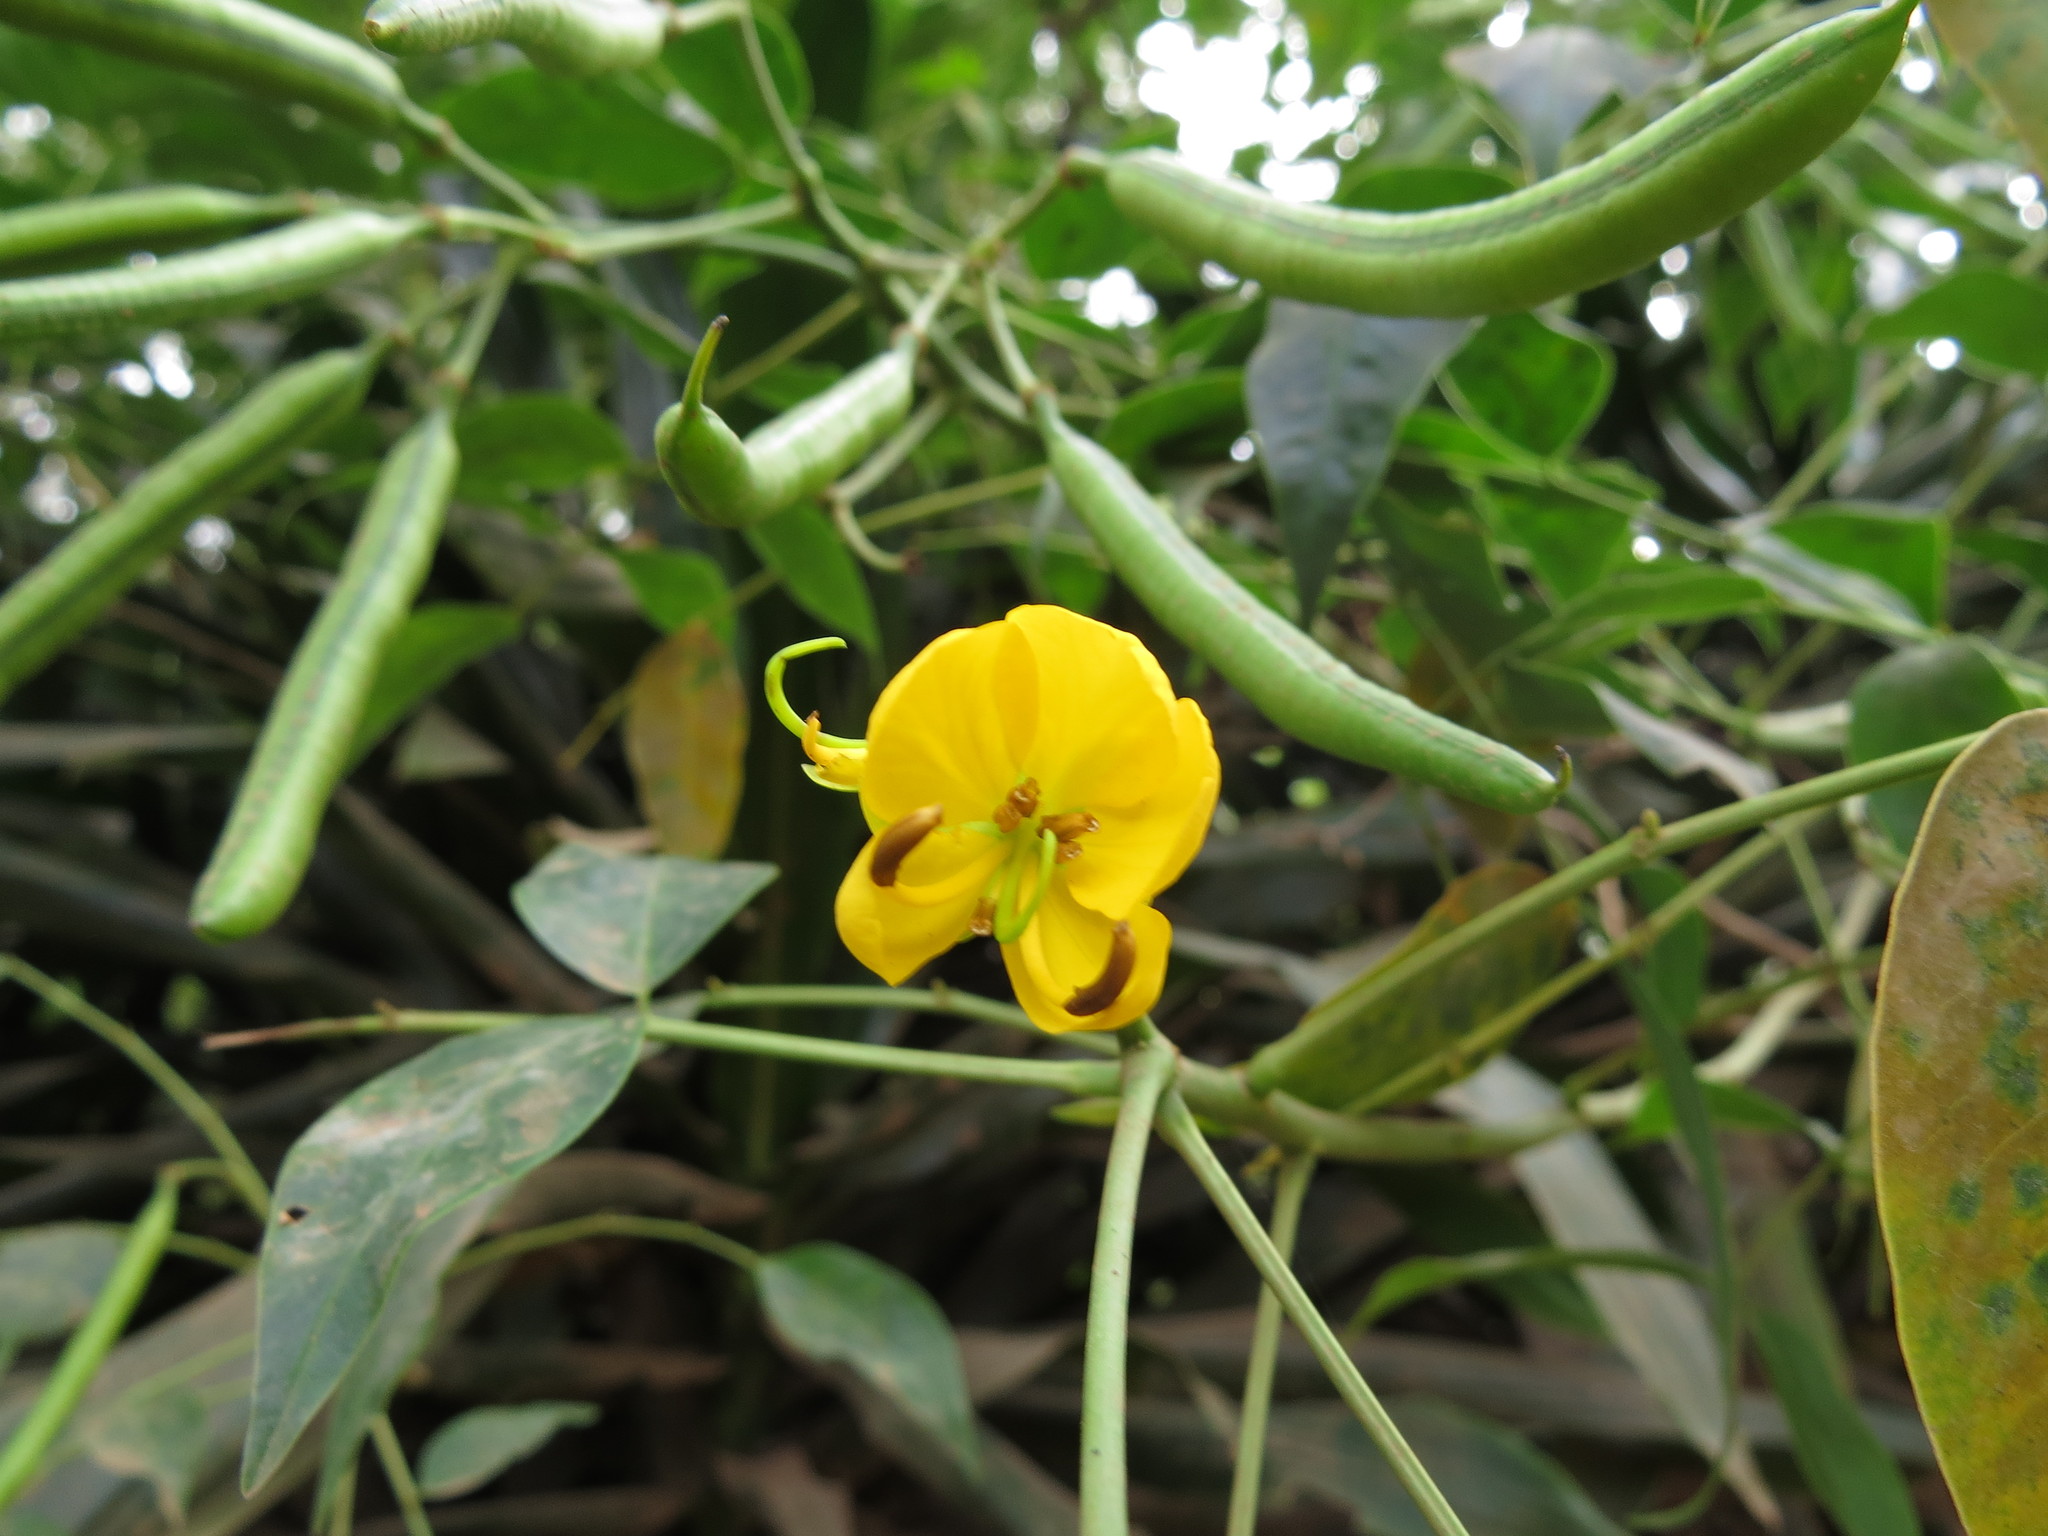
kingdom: Plantae
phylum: Tracheophyta
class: Magnoliopsida
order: Fabales
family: Fabaceae
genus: Senna
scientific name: Senna septemtrionalis
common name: Arsenic bush
